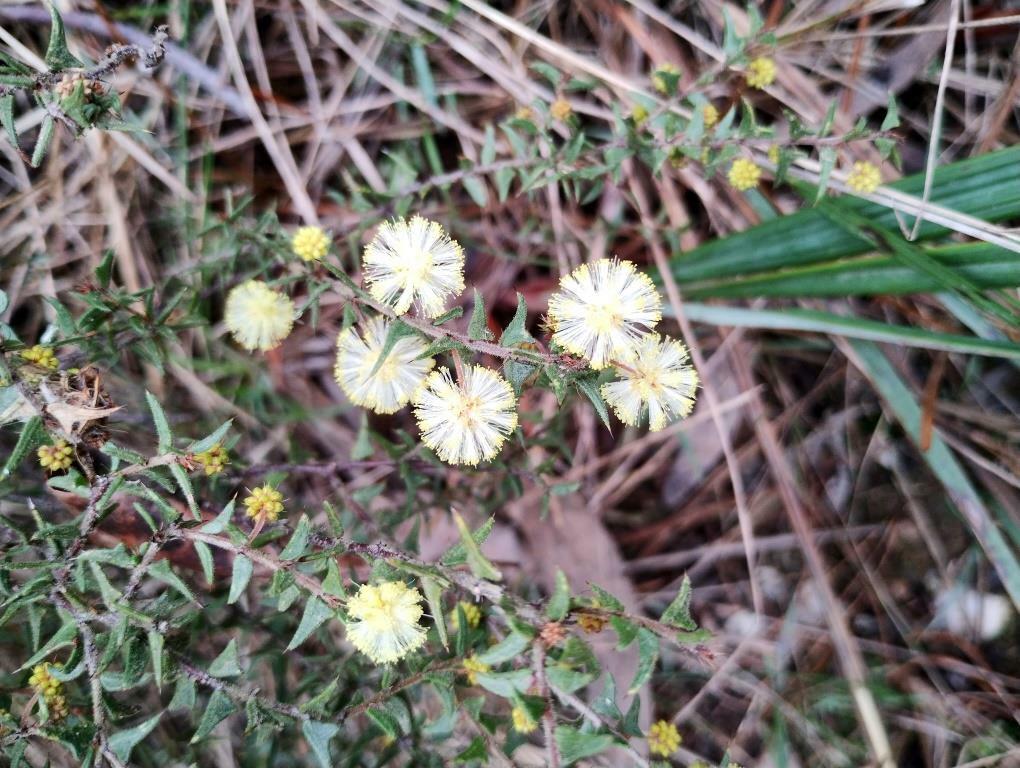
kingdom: Plantae
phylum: Tracheophyta
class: Magnoliopsida
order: Fabales
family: Fabaceae
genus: Acacia
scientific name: Acacia gunnii
